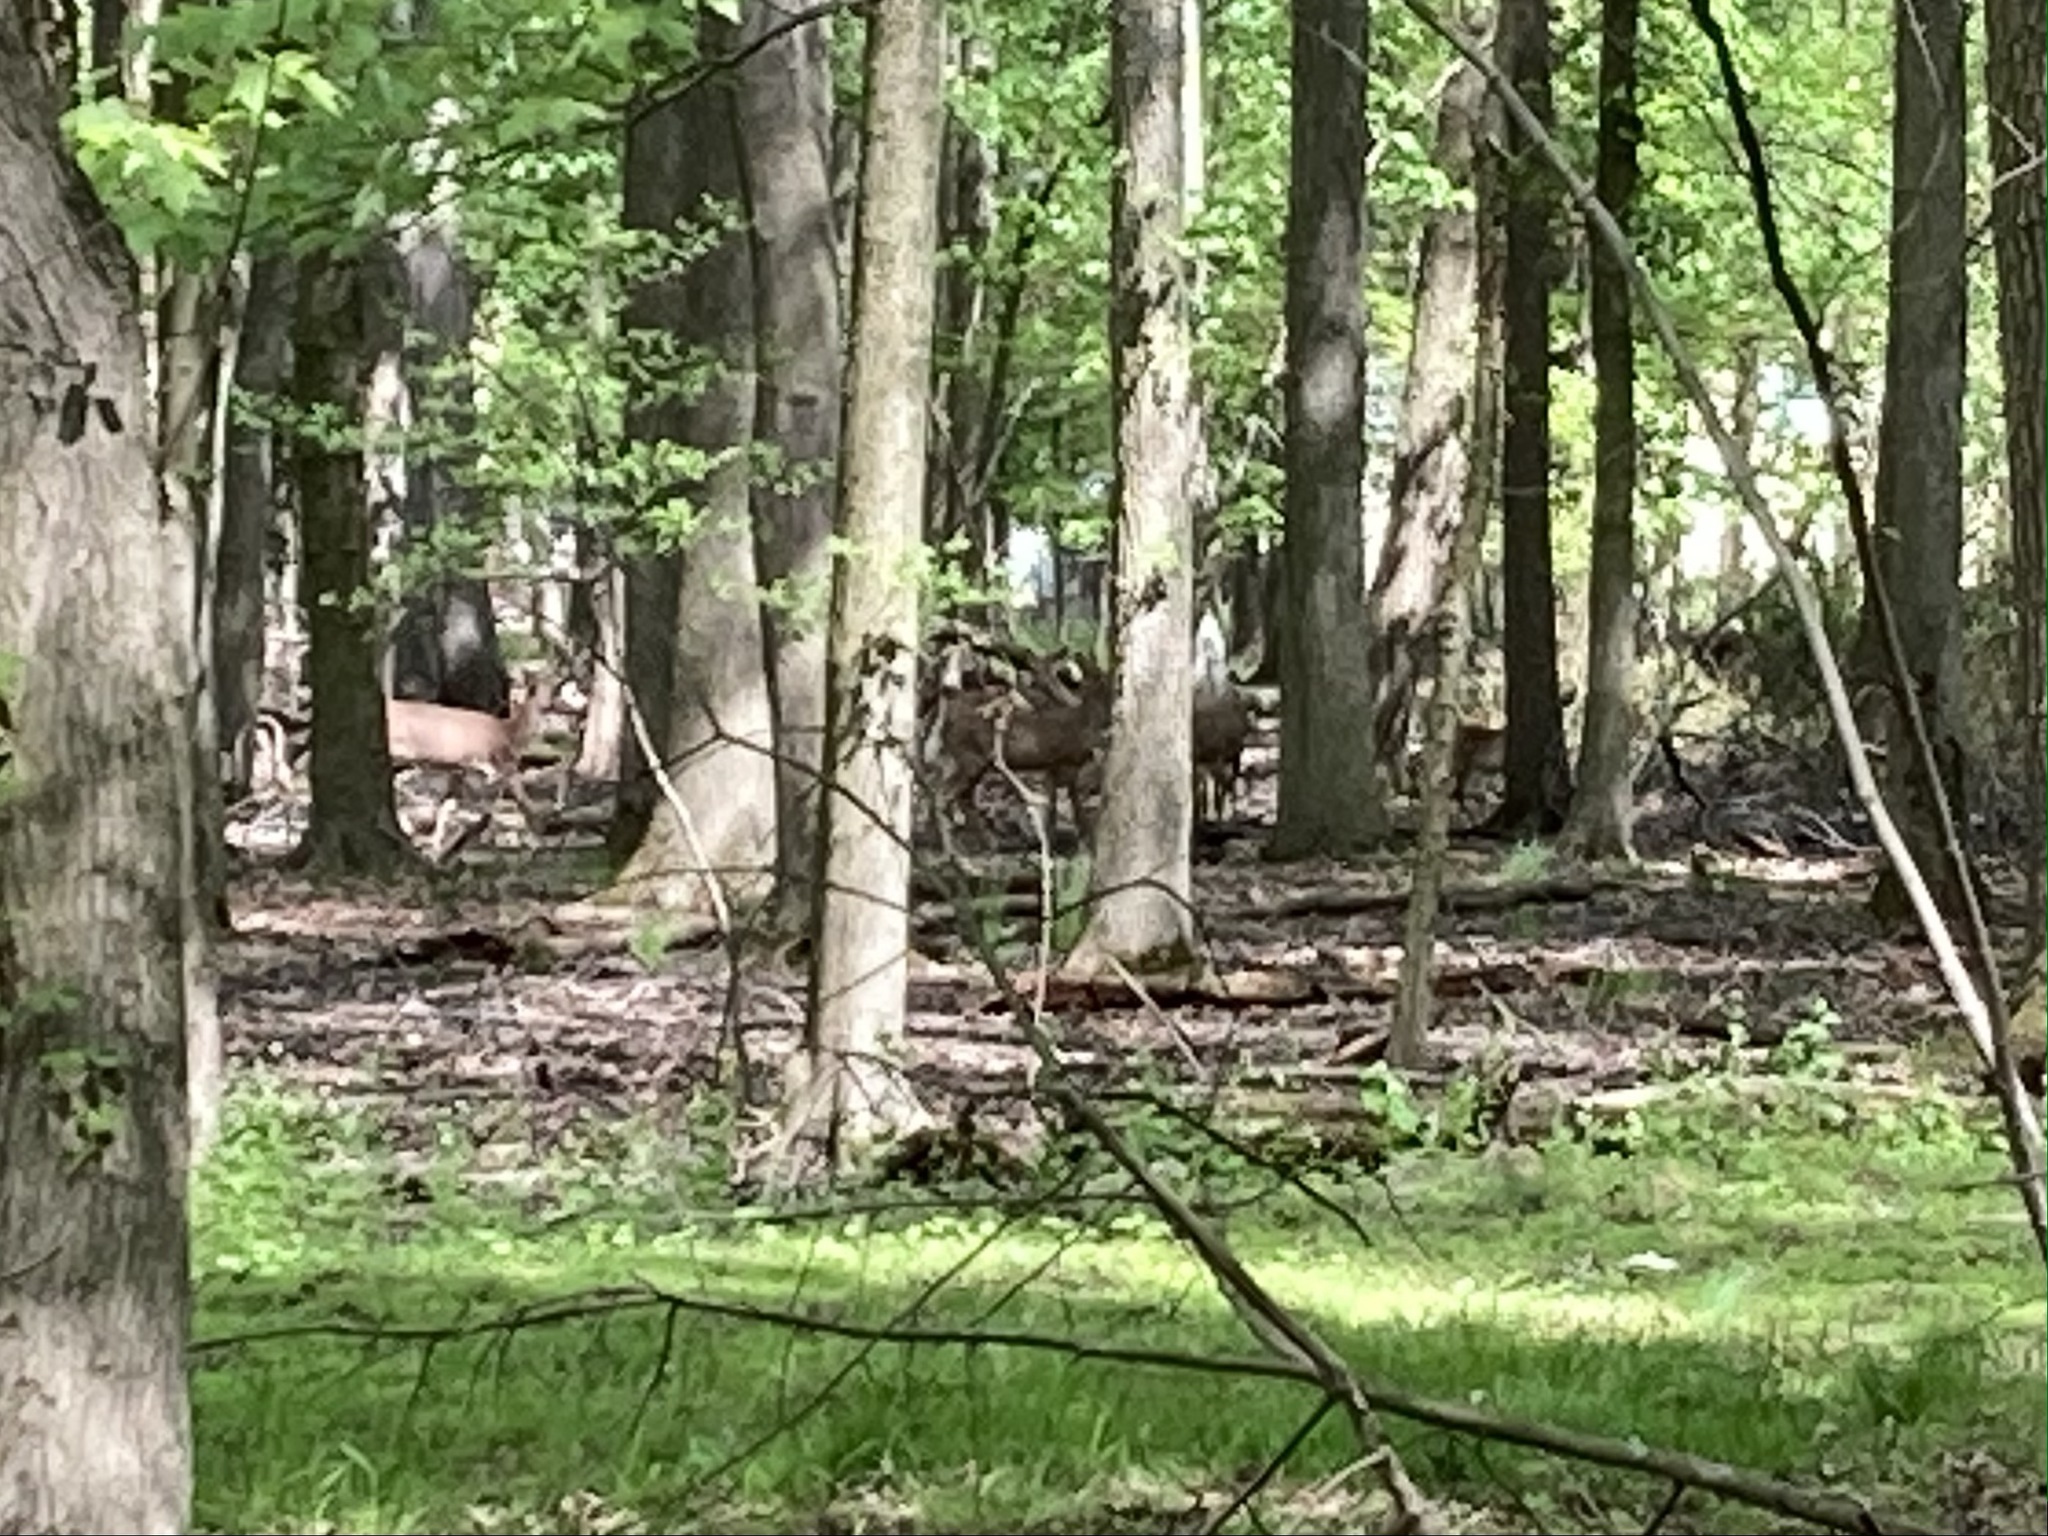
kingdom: Animalia
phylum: Chordata
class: Mammalia
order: Artiodactyla
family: Cervidae
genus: Odocoileus
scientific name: Odocoileus virginianus
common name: White-tailed deer
